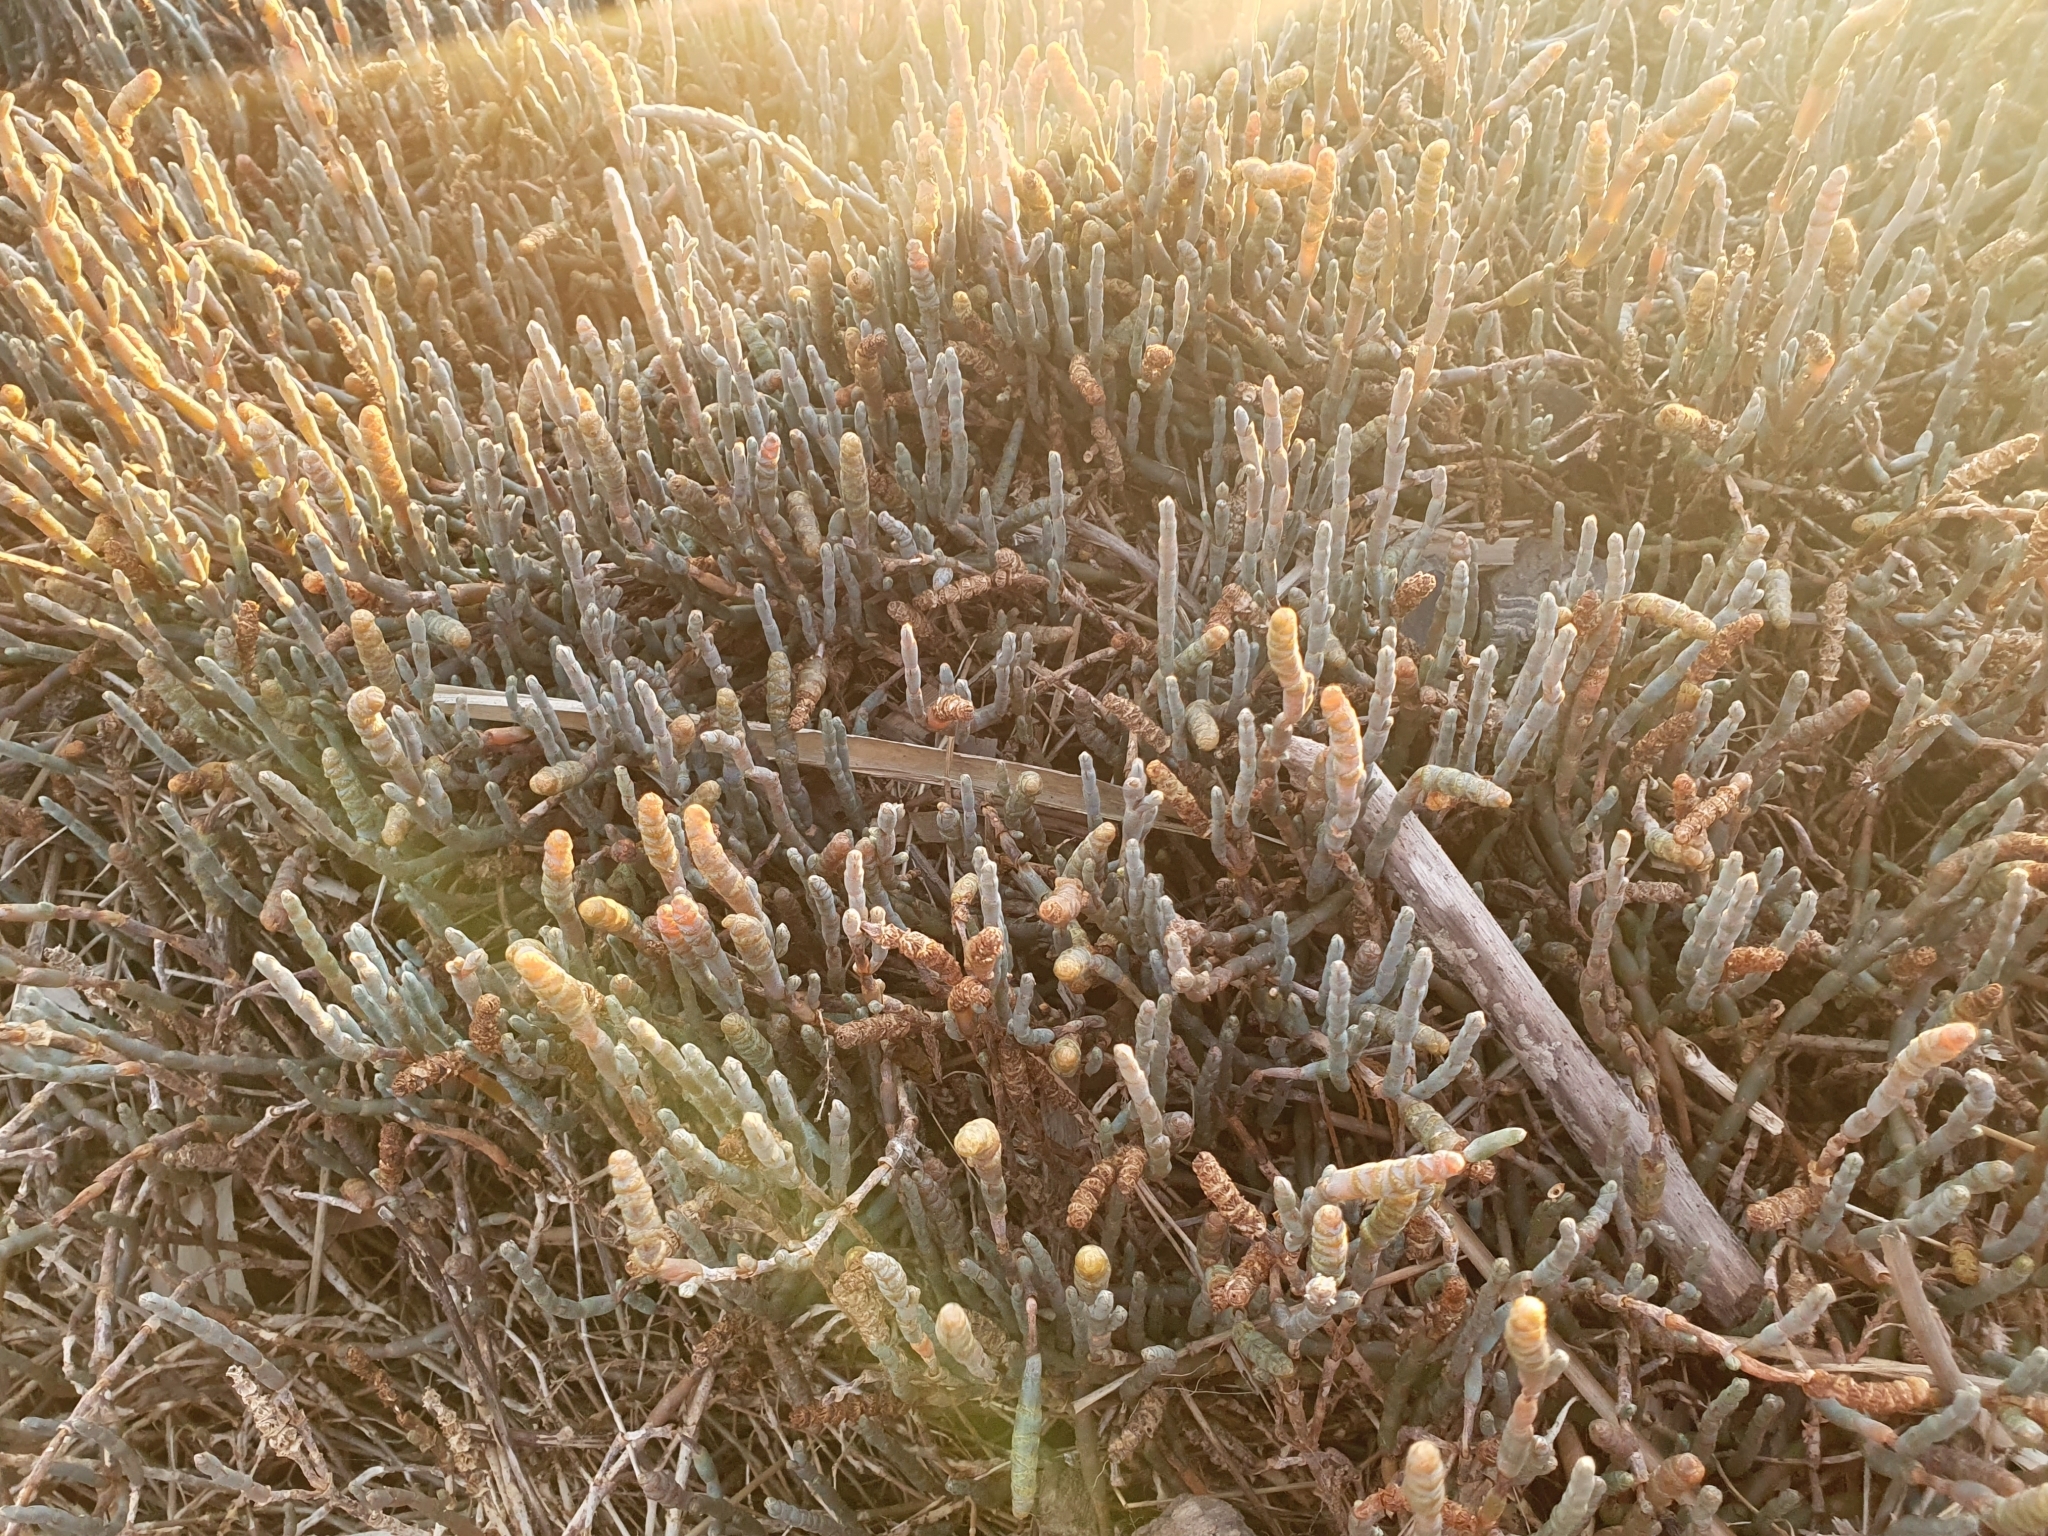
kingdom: Plantae
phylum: Tracheophyta
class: Magnoliopsida
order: Caryophyllales
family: Amaranthaceae
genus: Salicornia
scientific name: Salicornia quinqueflora
